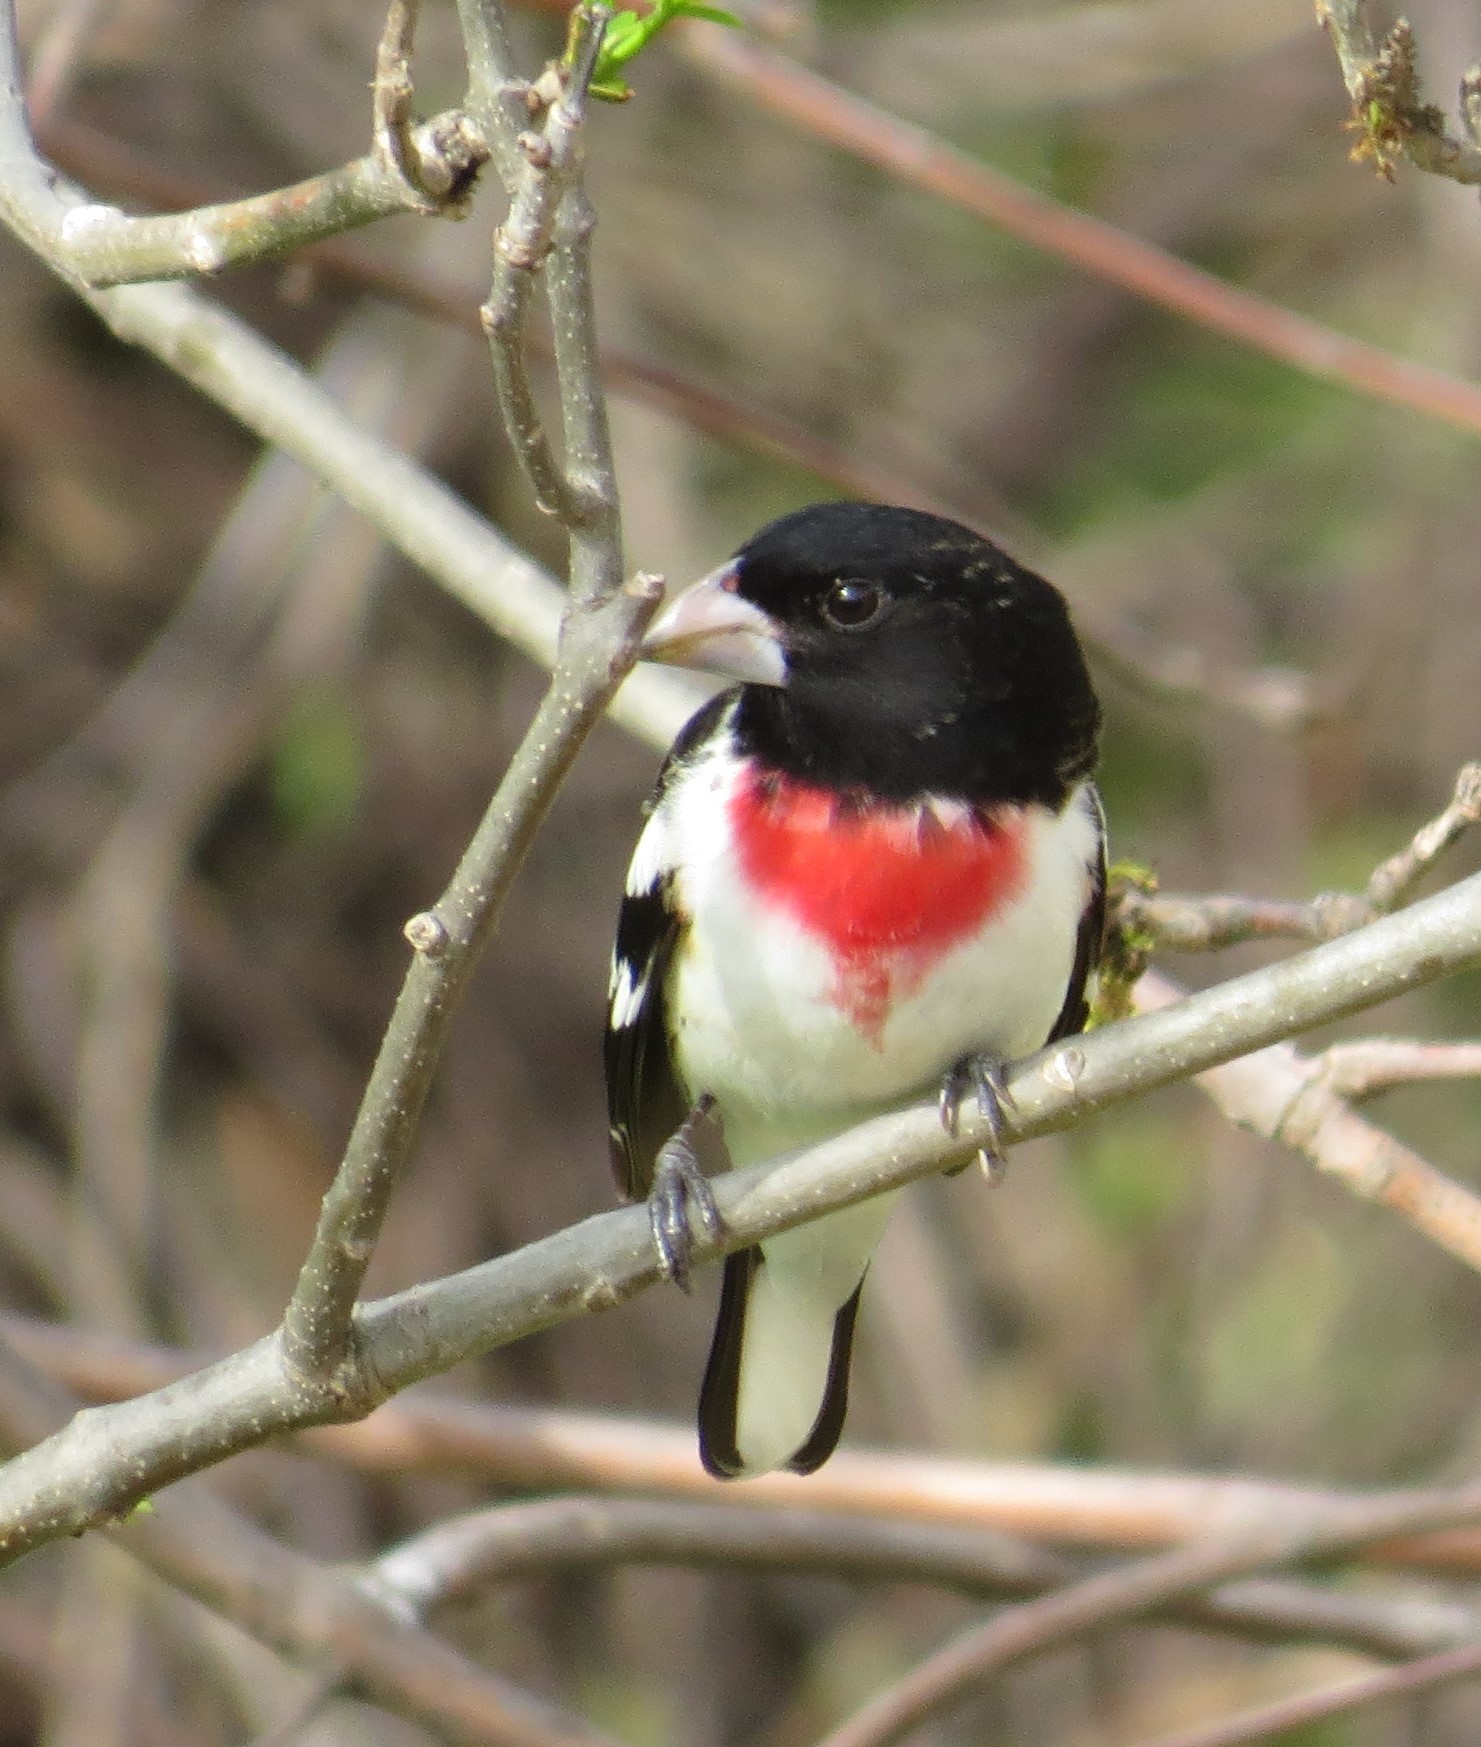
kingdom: Animalia
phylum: Chordata
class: Aves
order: Passeriformes
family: Cardinalidae
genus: Pheucticus
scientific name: Pheucticus ludovicianus
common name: Rose-breasted grosbeak
